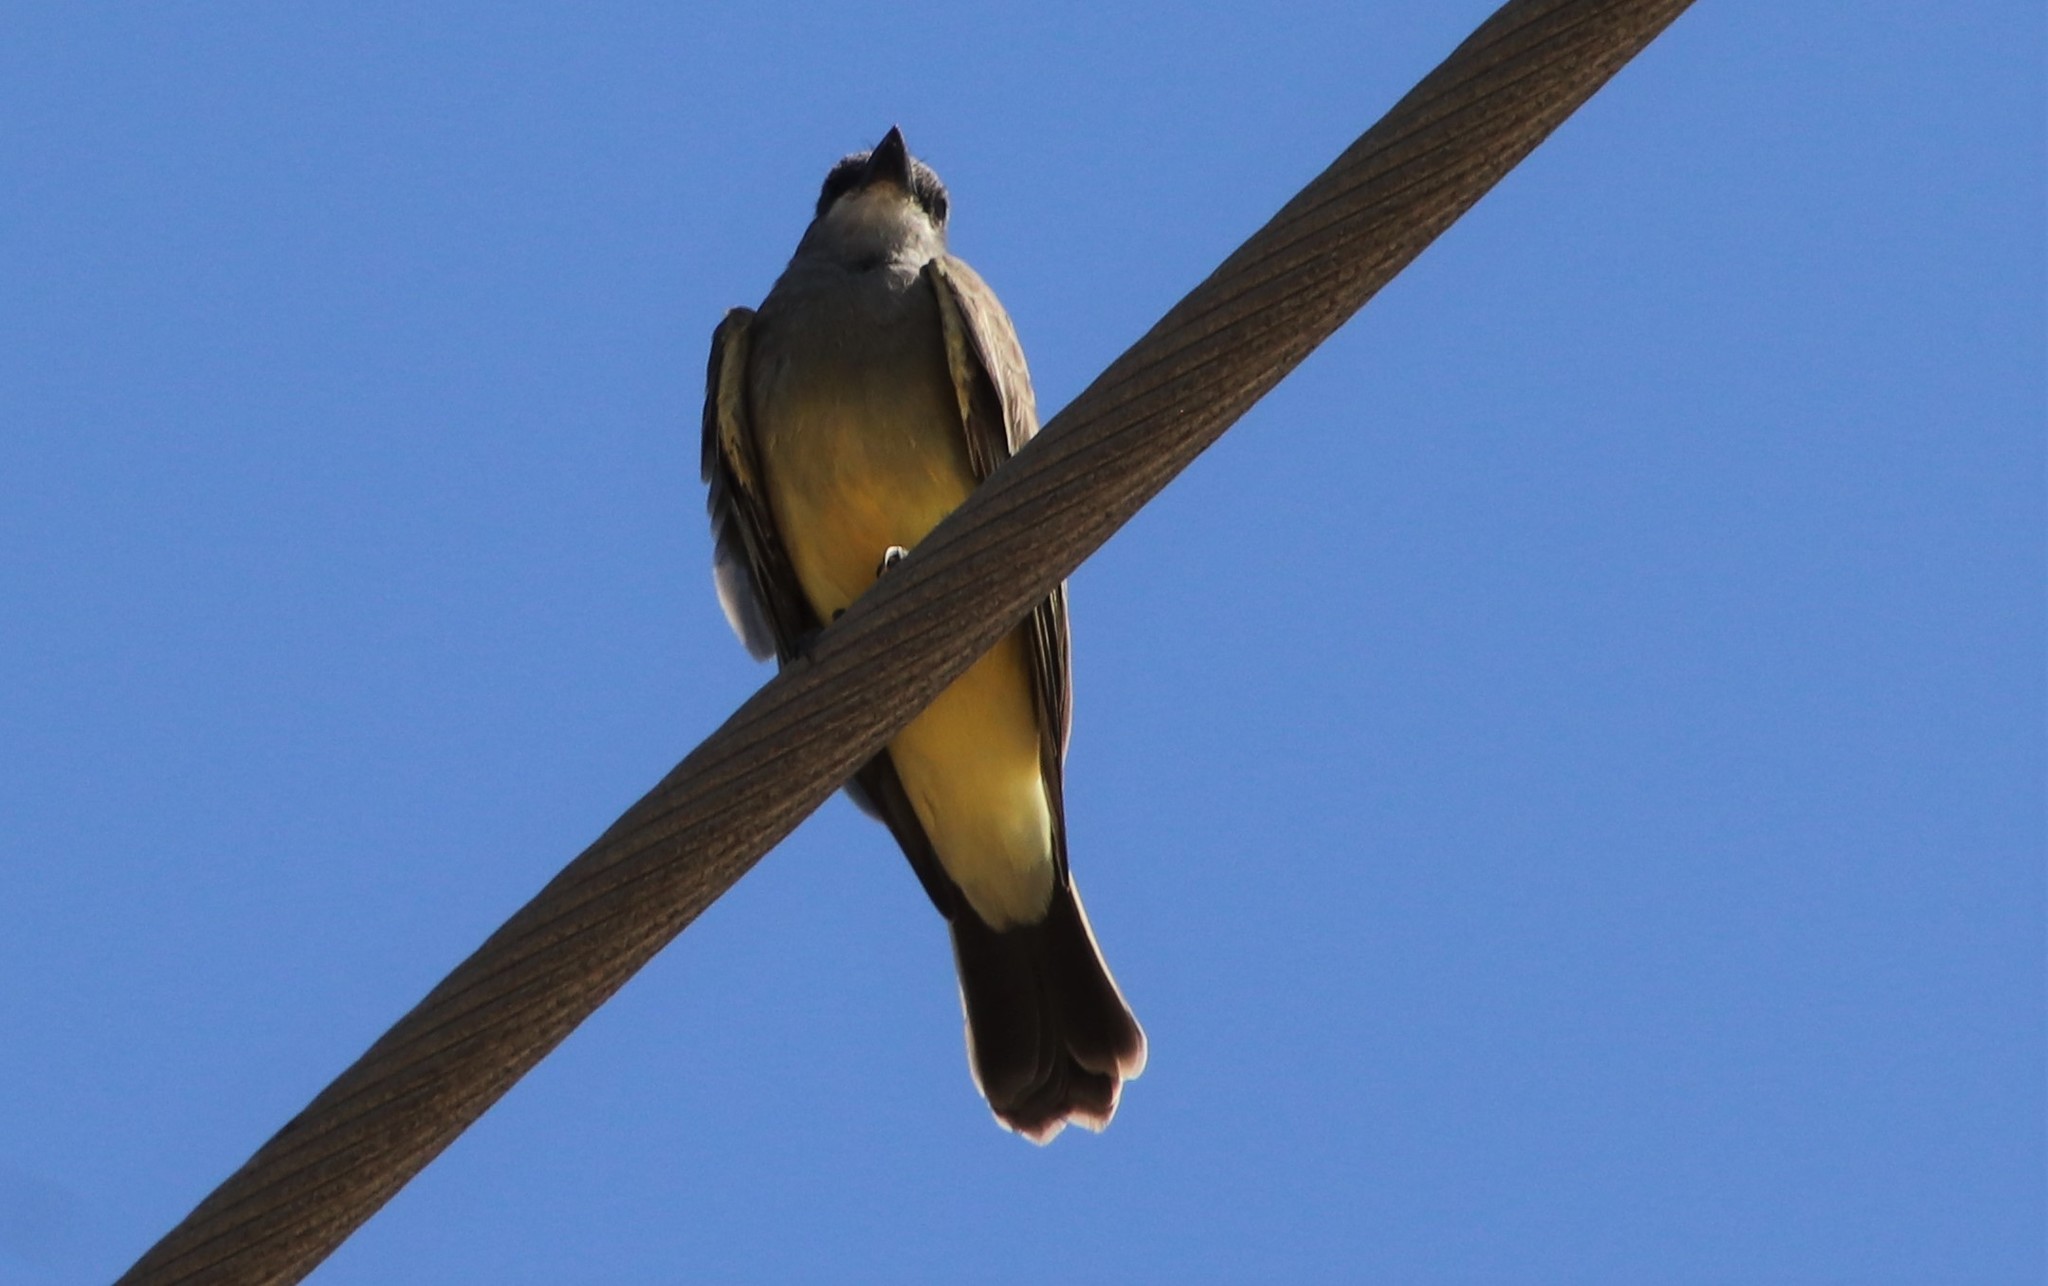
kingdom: Animalia
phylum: Chordata
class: Aves
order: Passeriformes
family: Tyrannidae
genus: Tyrannus
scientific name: Tyrannus vociferans
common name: Cassin's kingbird
